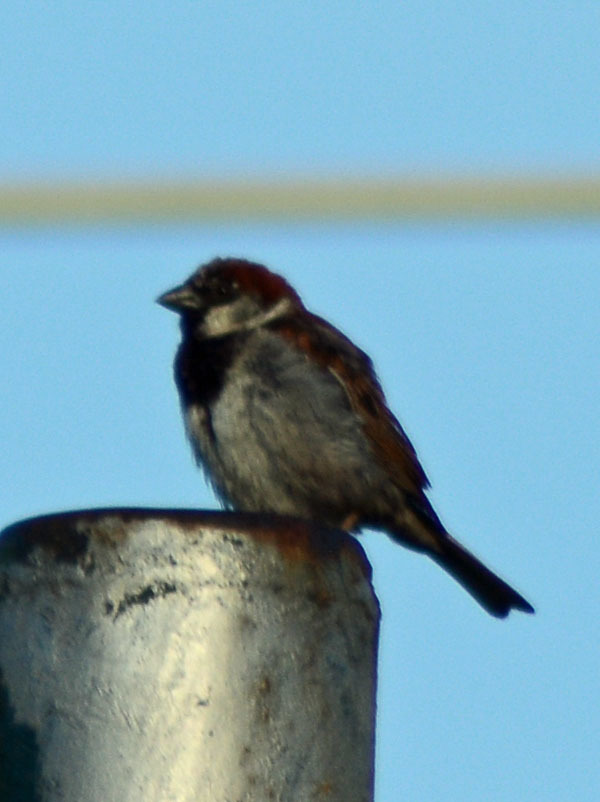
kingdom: Animalia
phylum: Chordata
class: Aves
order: Passeriformes
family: Passeridae
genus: Passer
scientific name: Passer domesticus
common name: House sparrow
